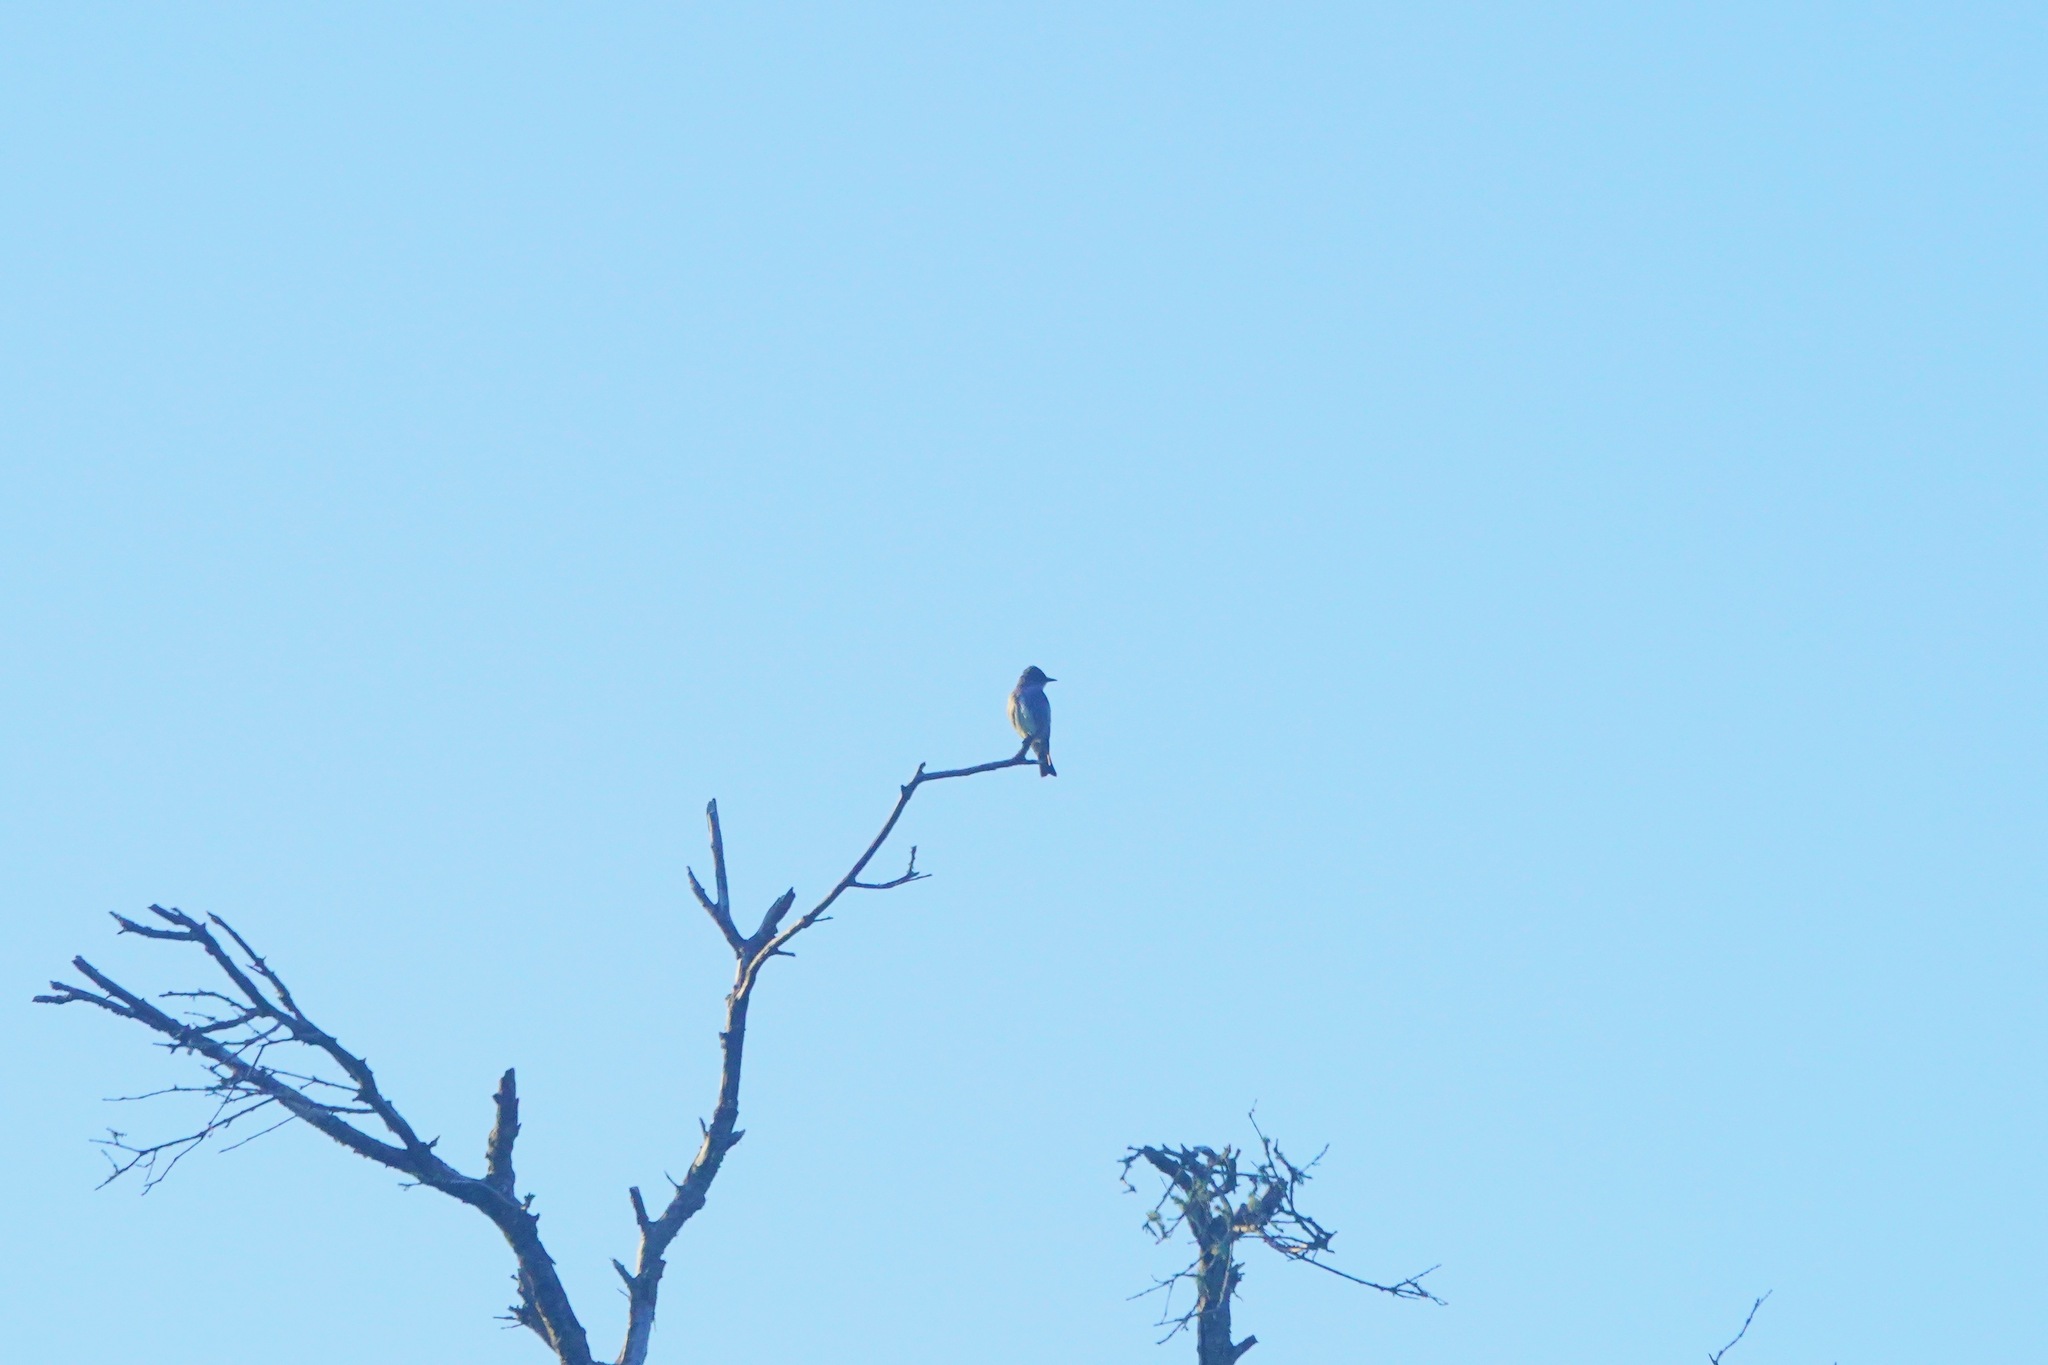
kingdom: Animalia
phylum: Chordata
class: Aves
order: Passeriformes
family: Tyrannidae
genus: Contopus
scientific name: Contopus cooperi
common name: Olive-sided flycatcher
